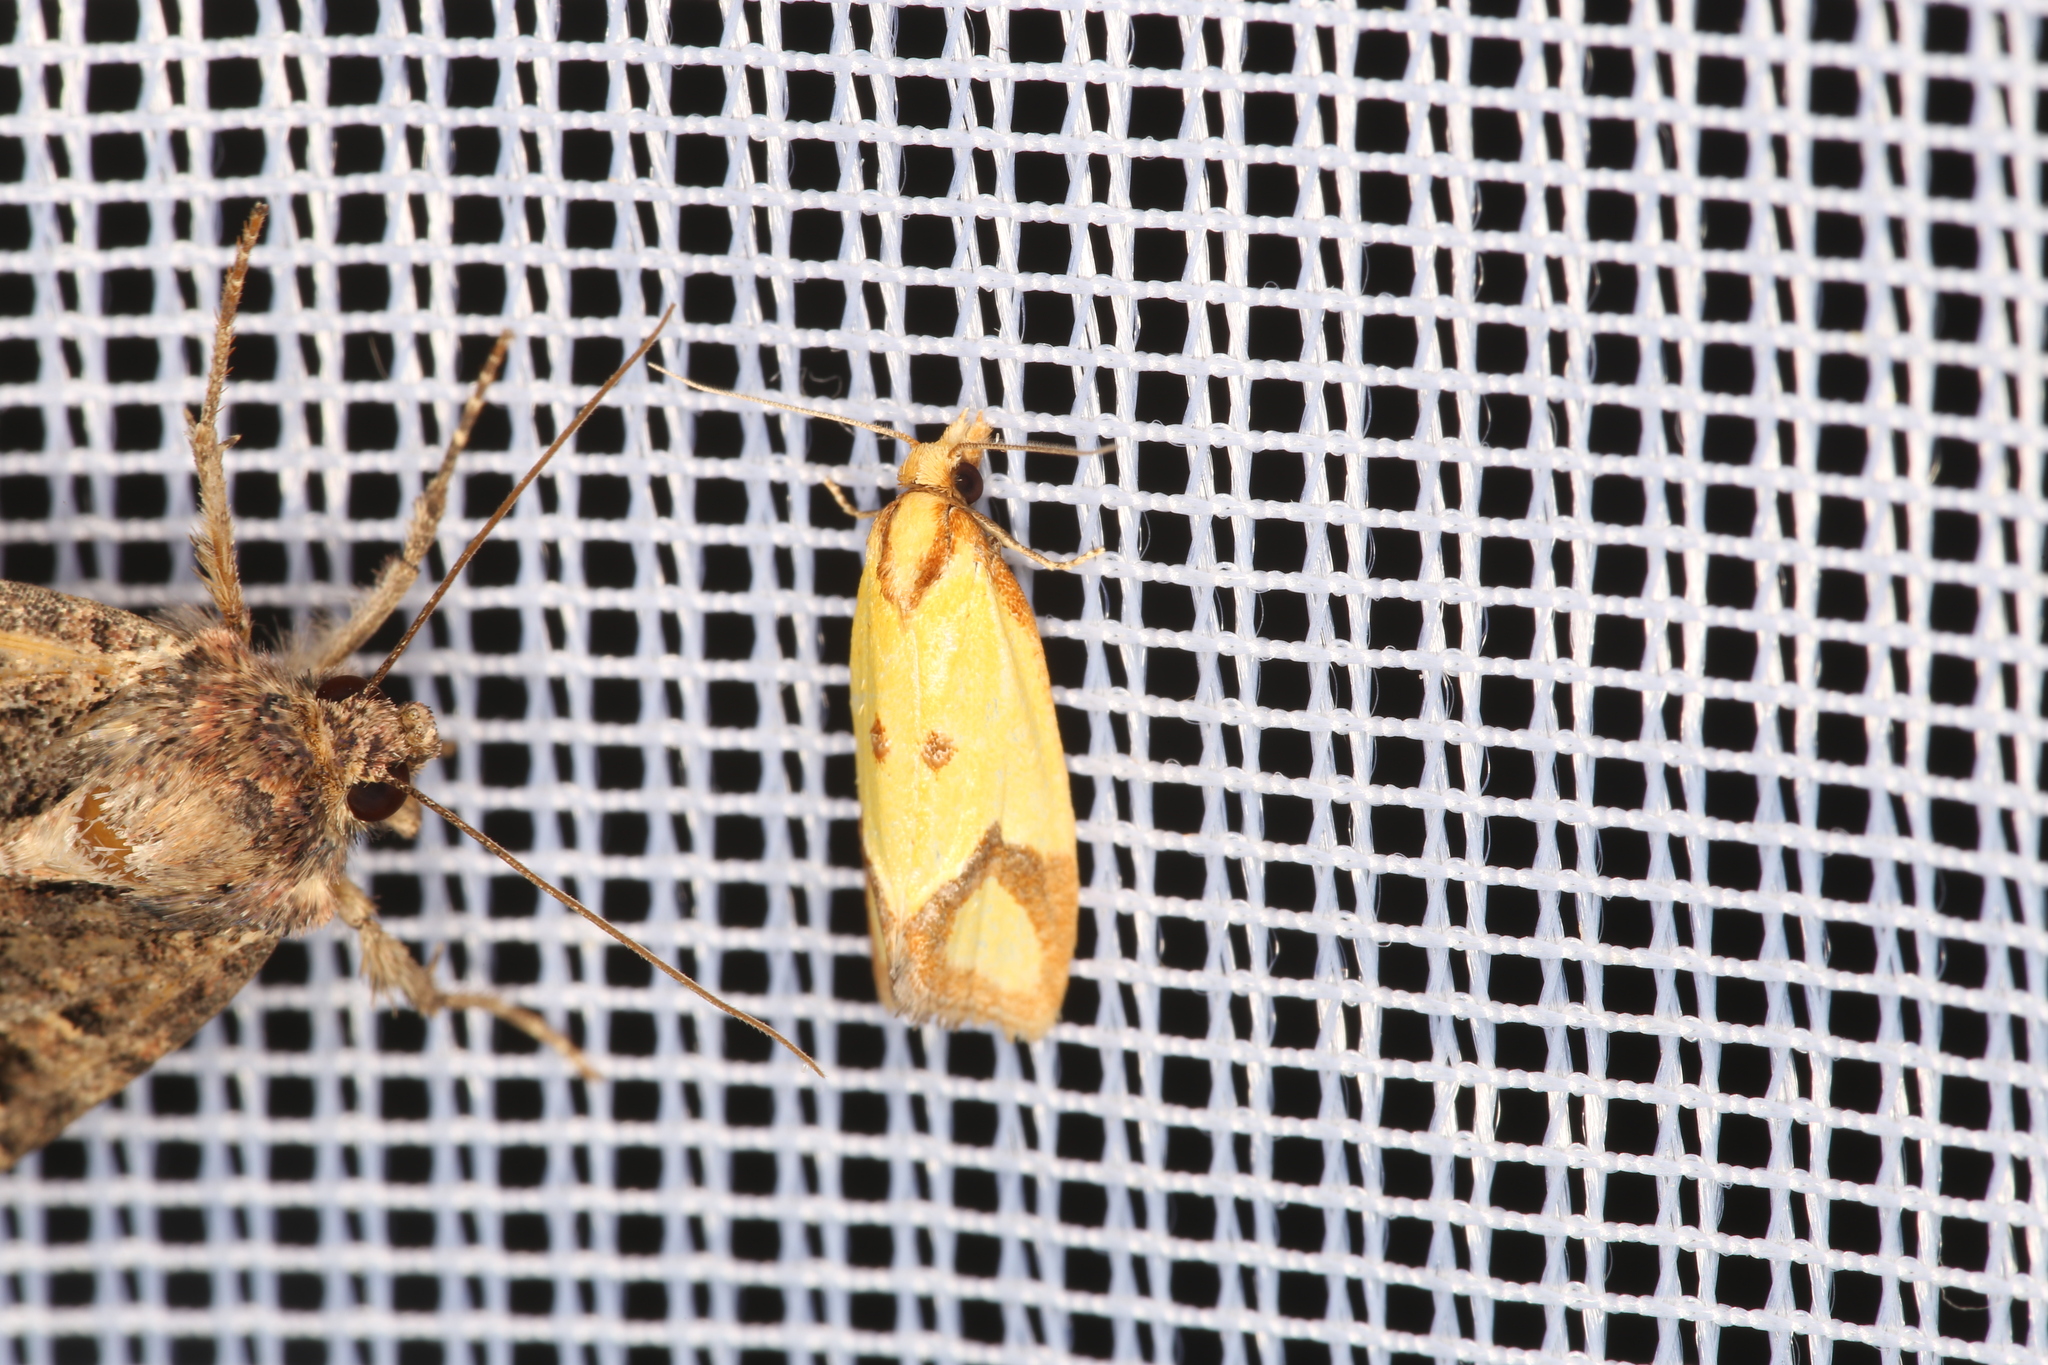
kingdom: Animalia
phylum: Arthropoda
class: Insecta
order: Lepidoptera
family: Tortricidae
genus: Agapeta
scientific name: Agapeta zoegana
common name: Sulfur knapweed root moth
